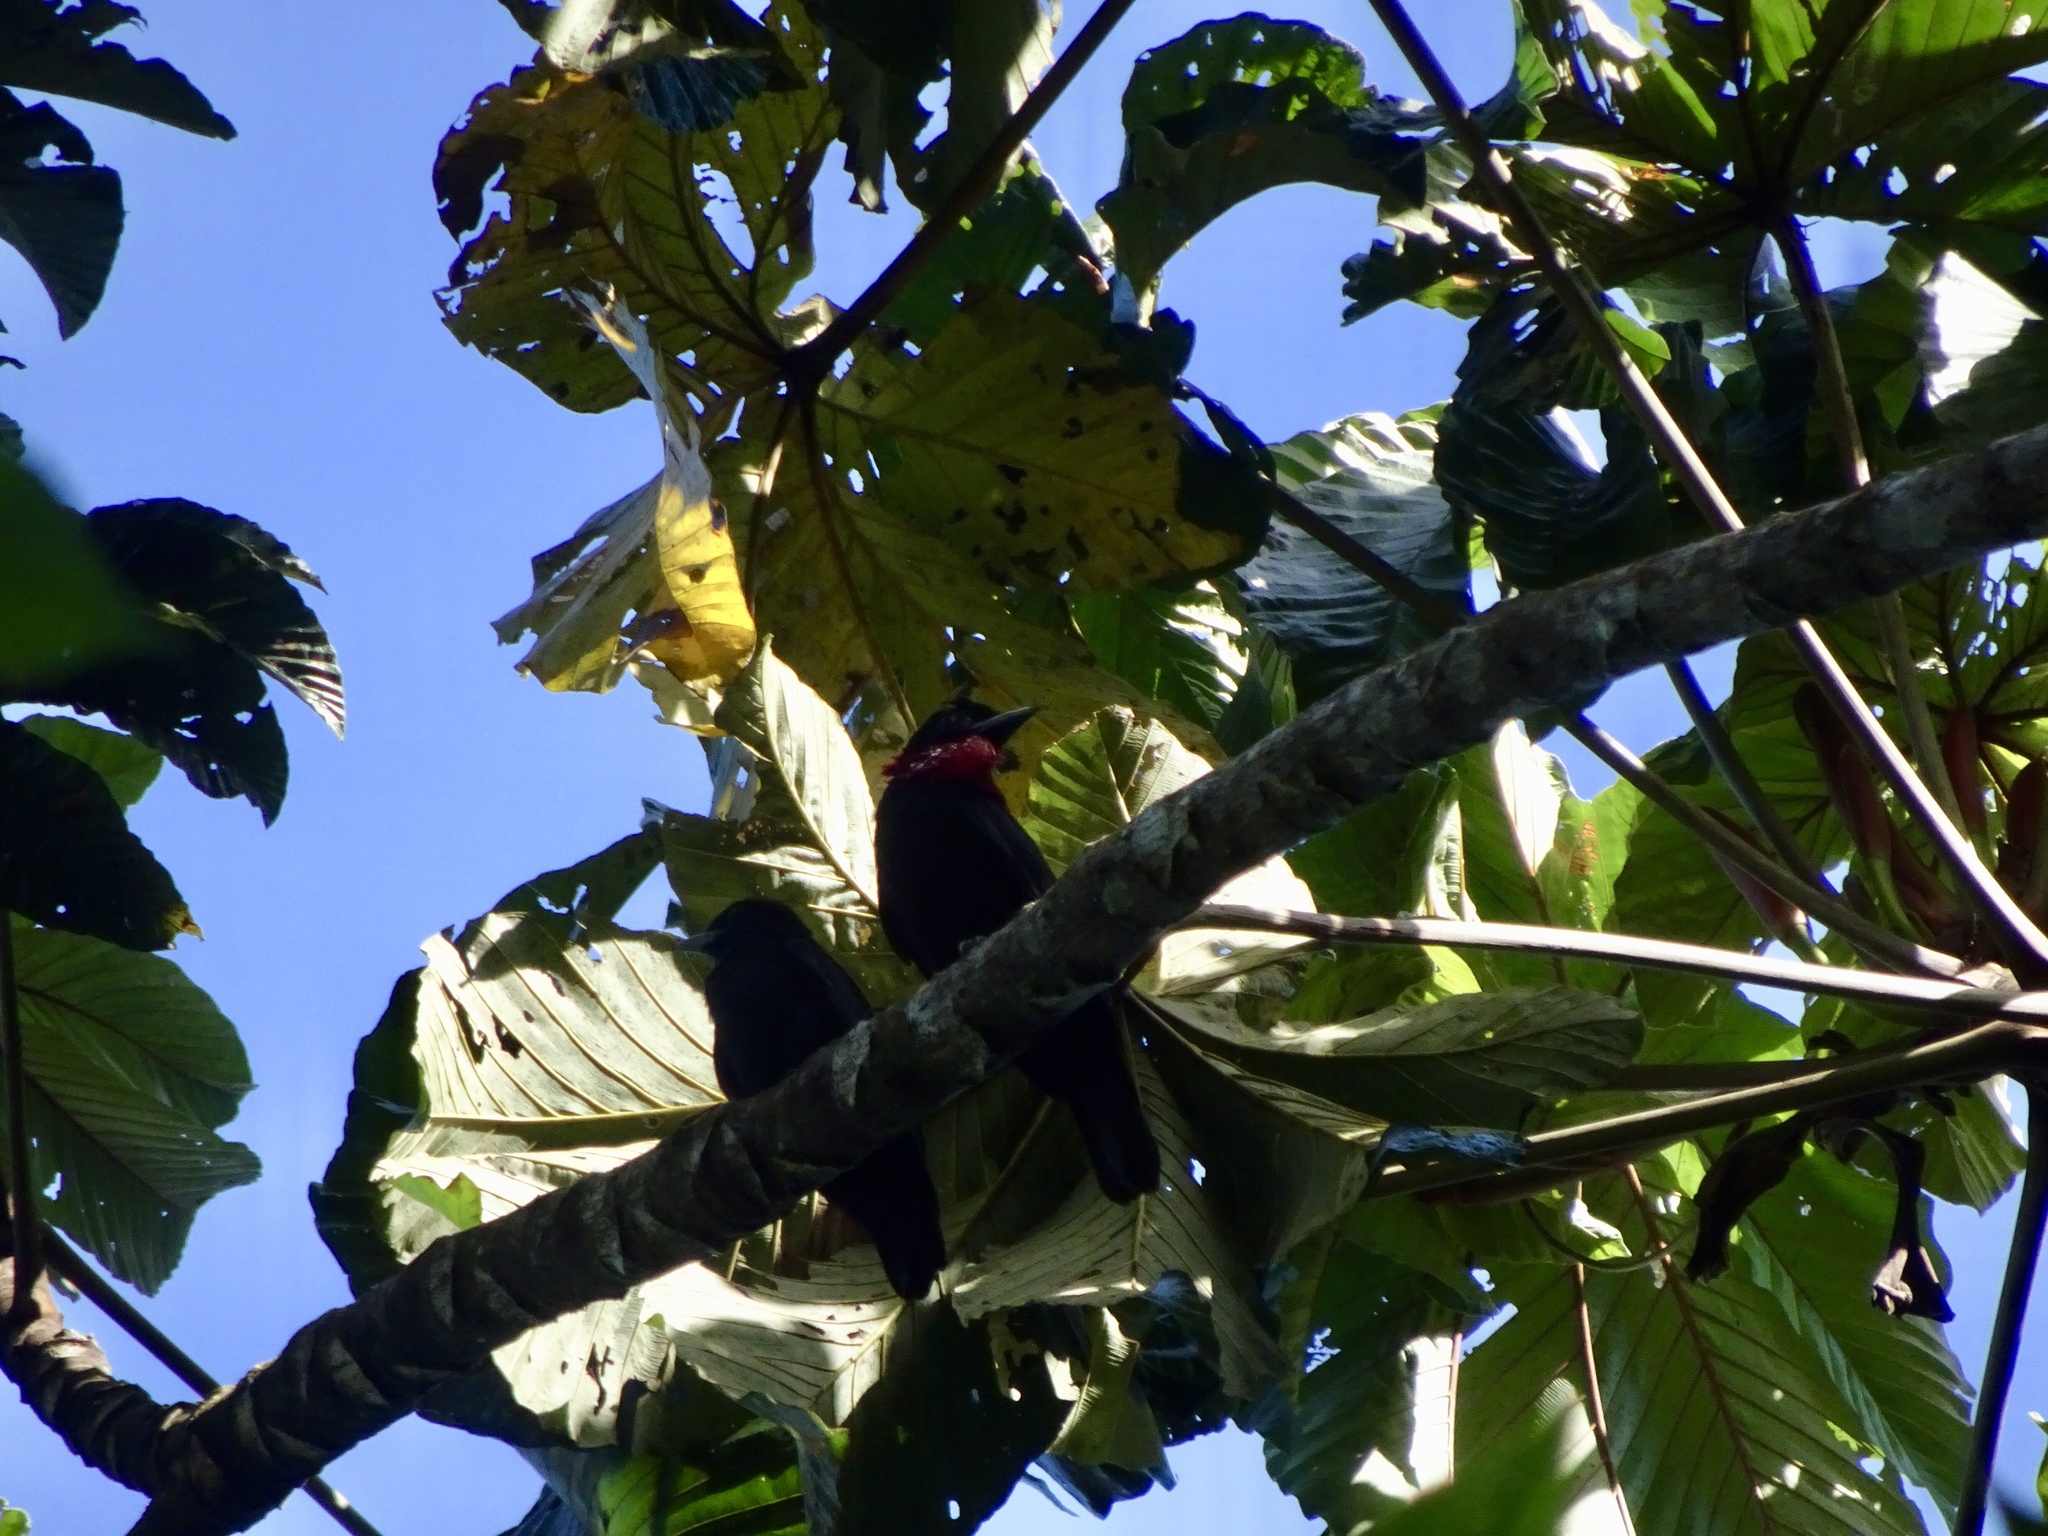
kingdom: Animalia
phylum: Chordata
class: Aves
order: Passeriformes
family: Cotingidae
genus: Querula
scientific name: Querula purpurata
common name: Purple-throated fruitcrow
